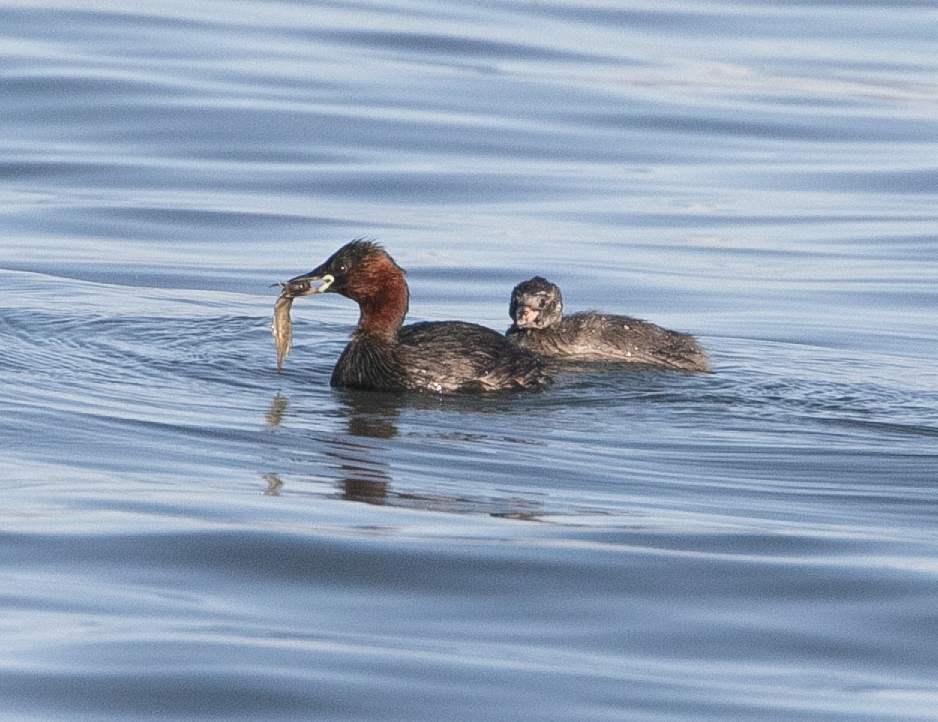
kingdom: Animalia
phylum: Chordata
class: Aves
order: Podicipediformes
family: Podicipedidae
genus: Tachybaptus
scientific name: Tachybaptus ruficollis
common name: Little grebe
